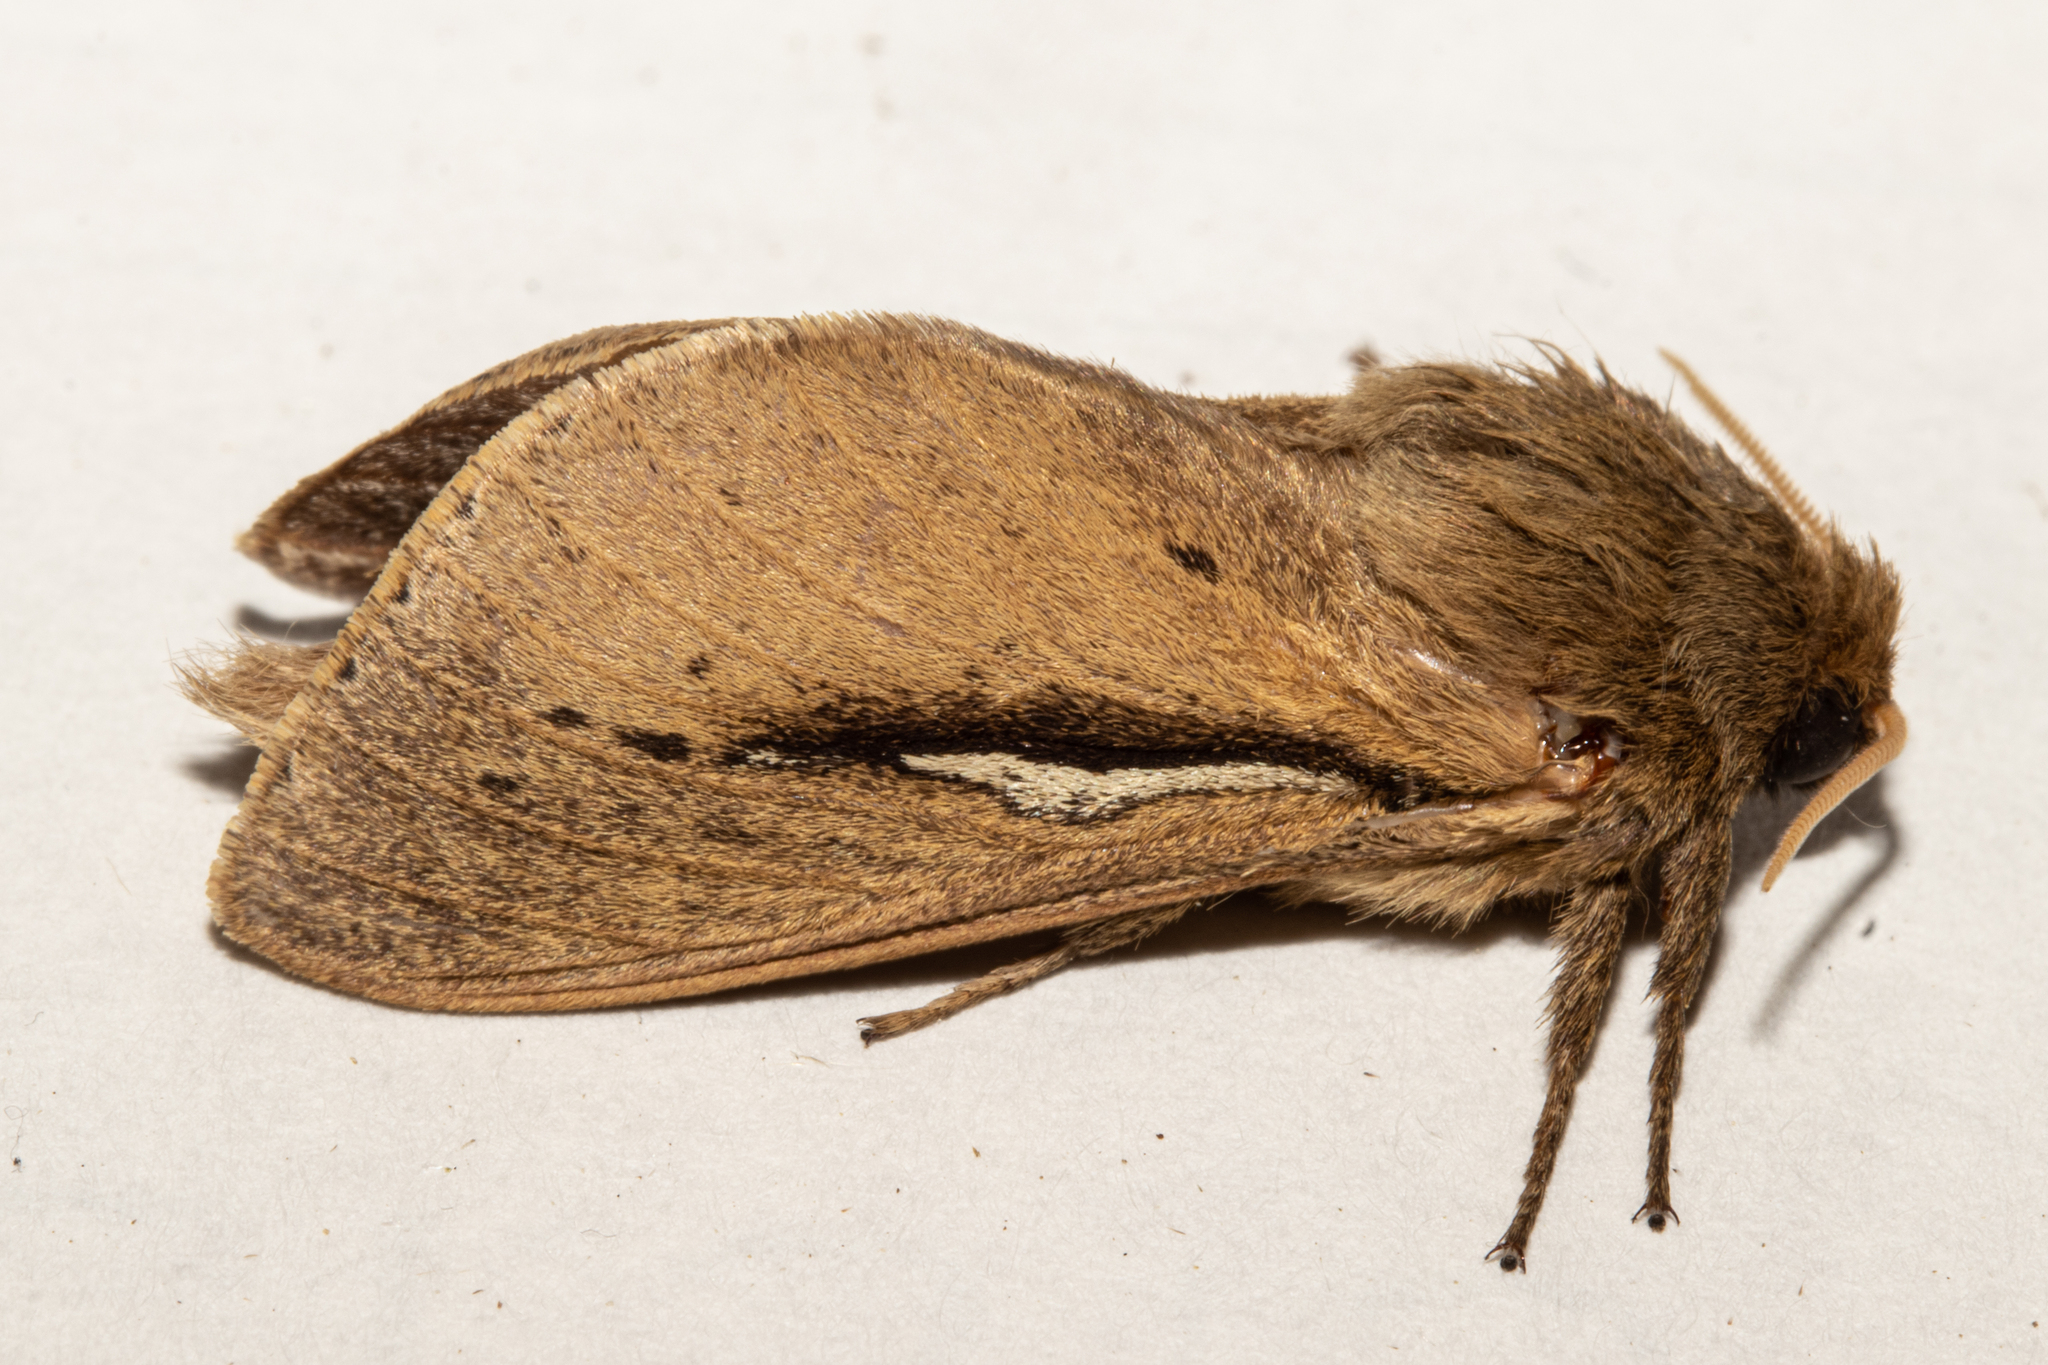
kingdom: Animalia
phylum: Arthropoda
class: Insecta
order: Lepidoptera
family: Hepialidae
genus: Wiseana
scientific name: Wiseana umbraculatus
